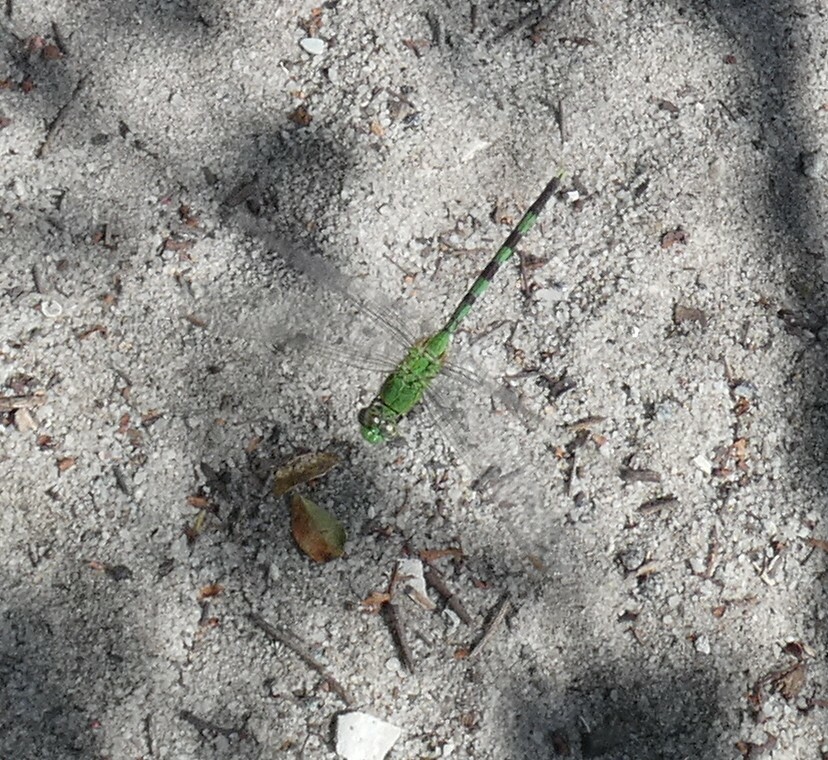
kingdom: Animalia
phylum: Arthropoda
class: Insecta
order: Odonata
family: Libellulidae
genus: Erythemis
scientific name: Erythemis vesiculosa
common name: Great pondhawk
